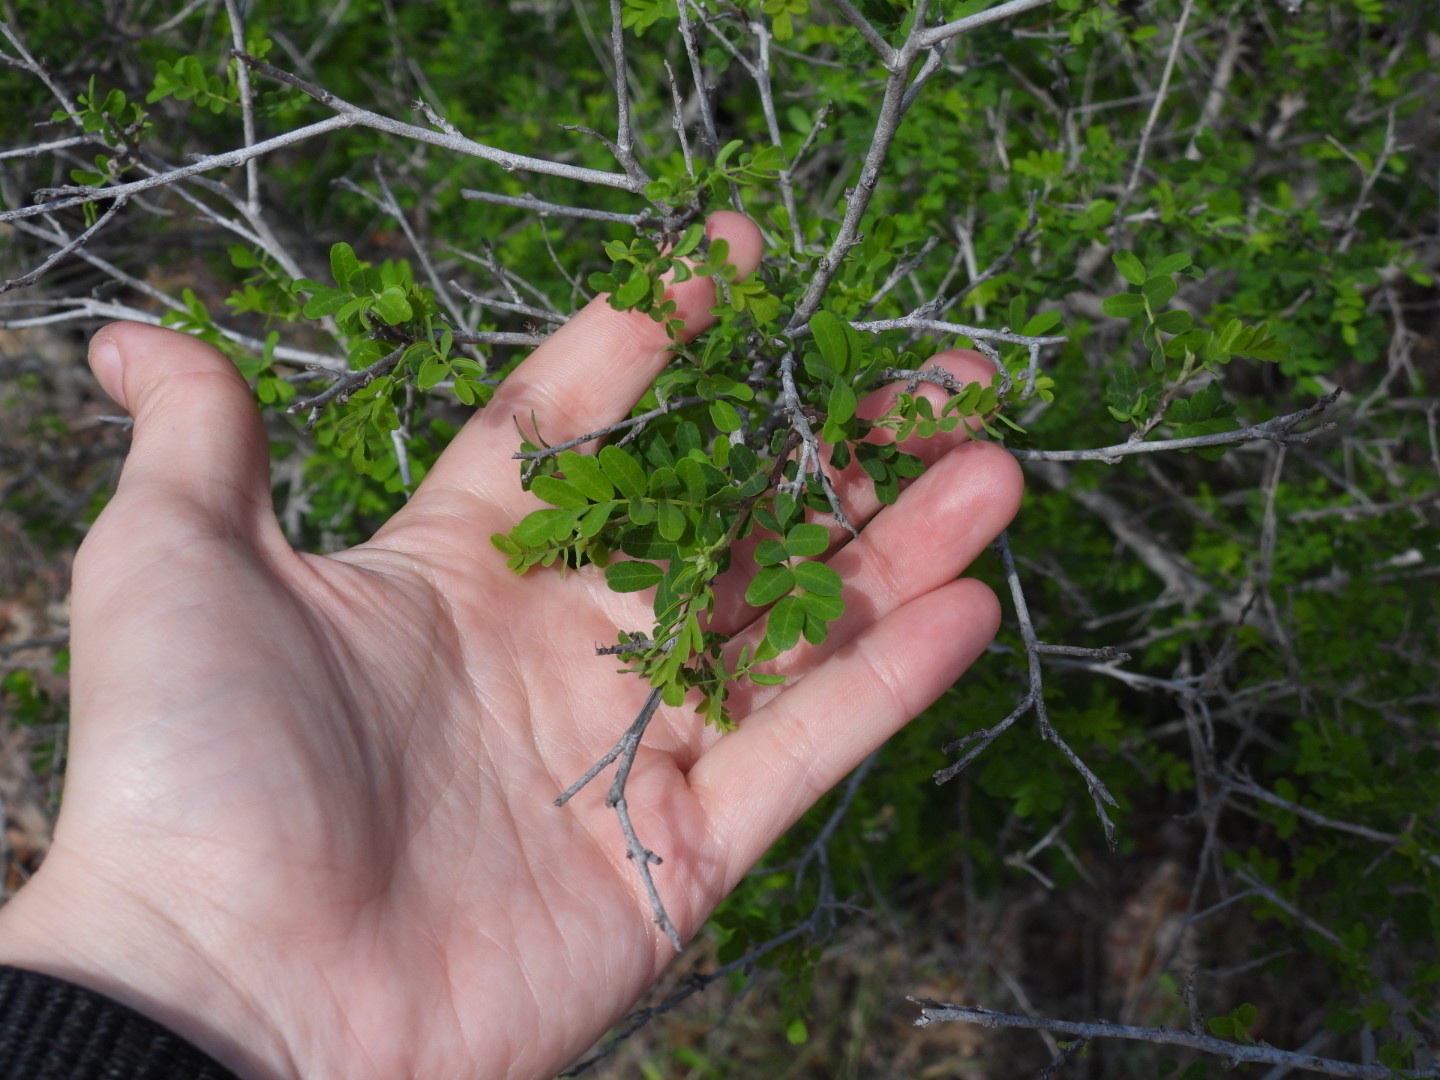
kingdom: Plantae
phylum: Tracheophyta
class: Magnoliopsida
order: Fabales
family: Fabaceae
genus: Eysenhardtia
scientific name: Eysenhardtia texana
